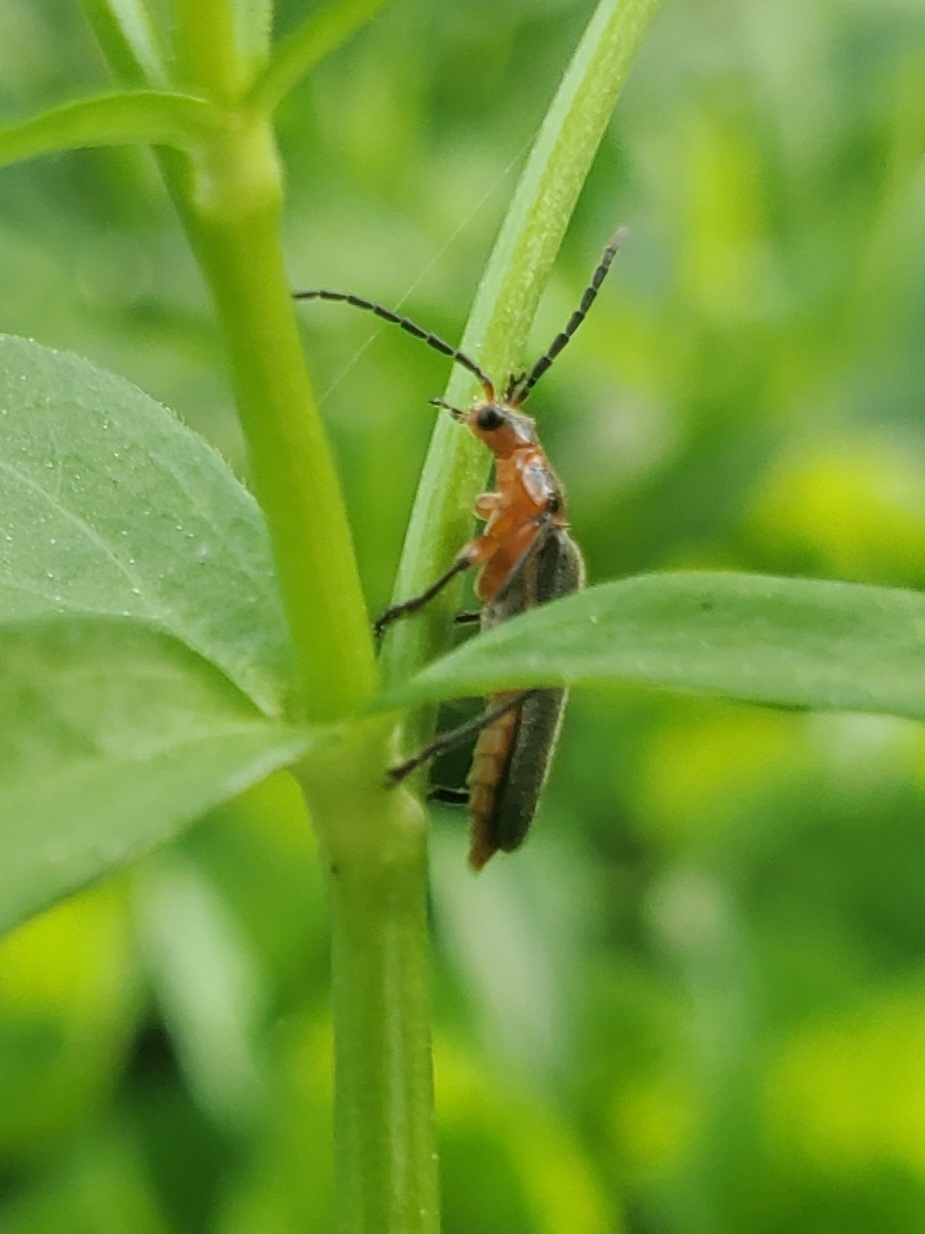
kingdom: Animalia
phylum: Arthropoda
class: Insecta
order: Coleoptera
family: Cantharidae
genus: Atalantycha
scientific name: Atalantycha bilineata
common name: Two-lined leatherwing
